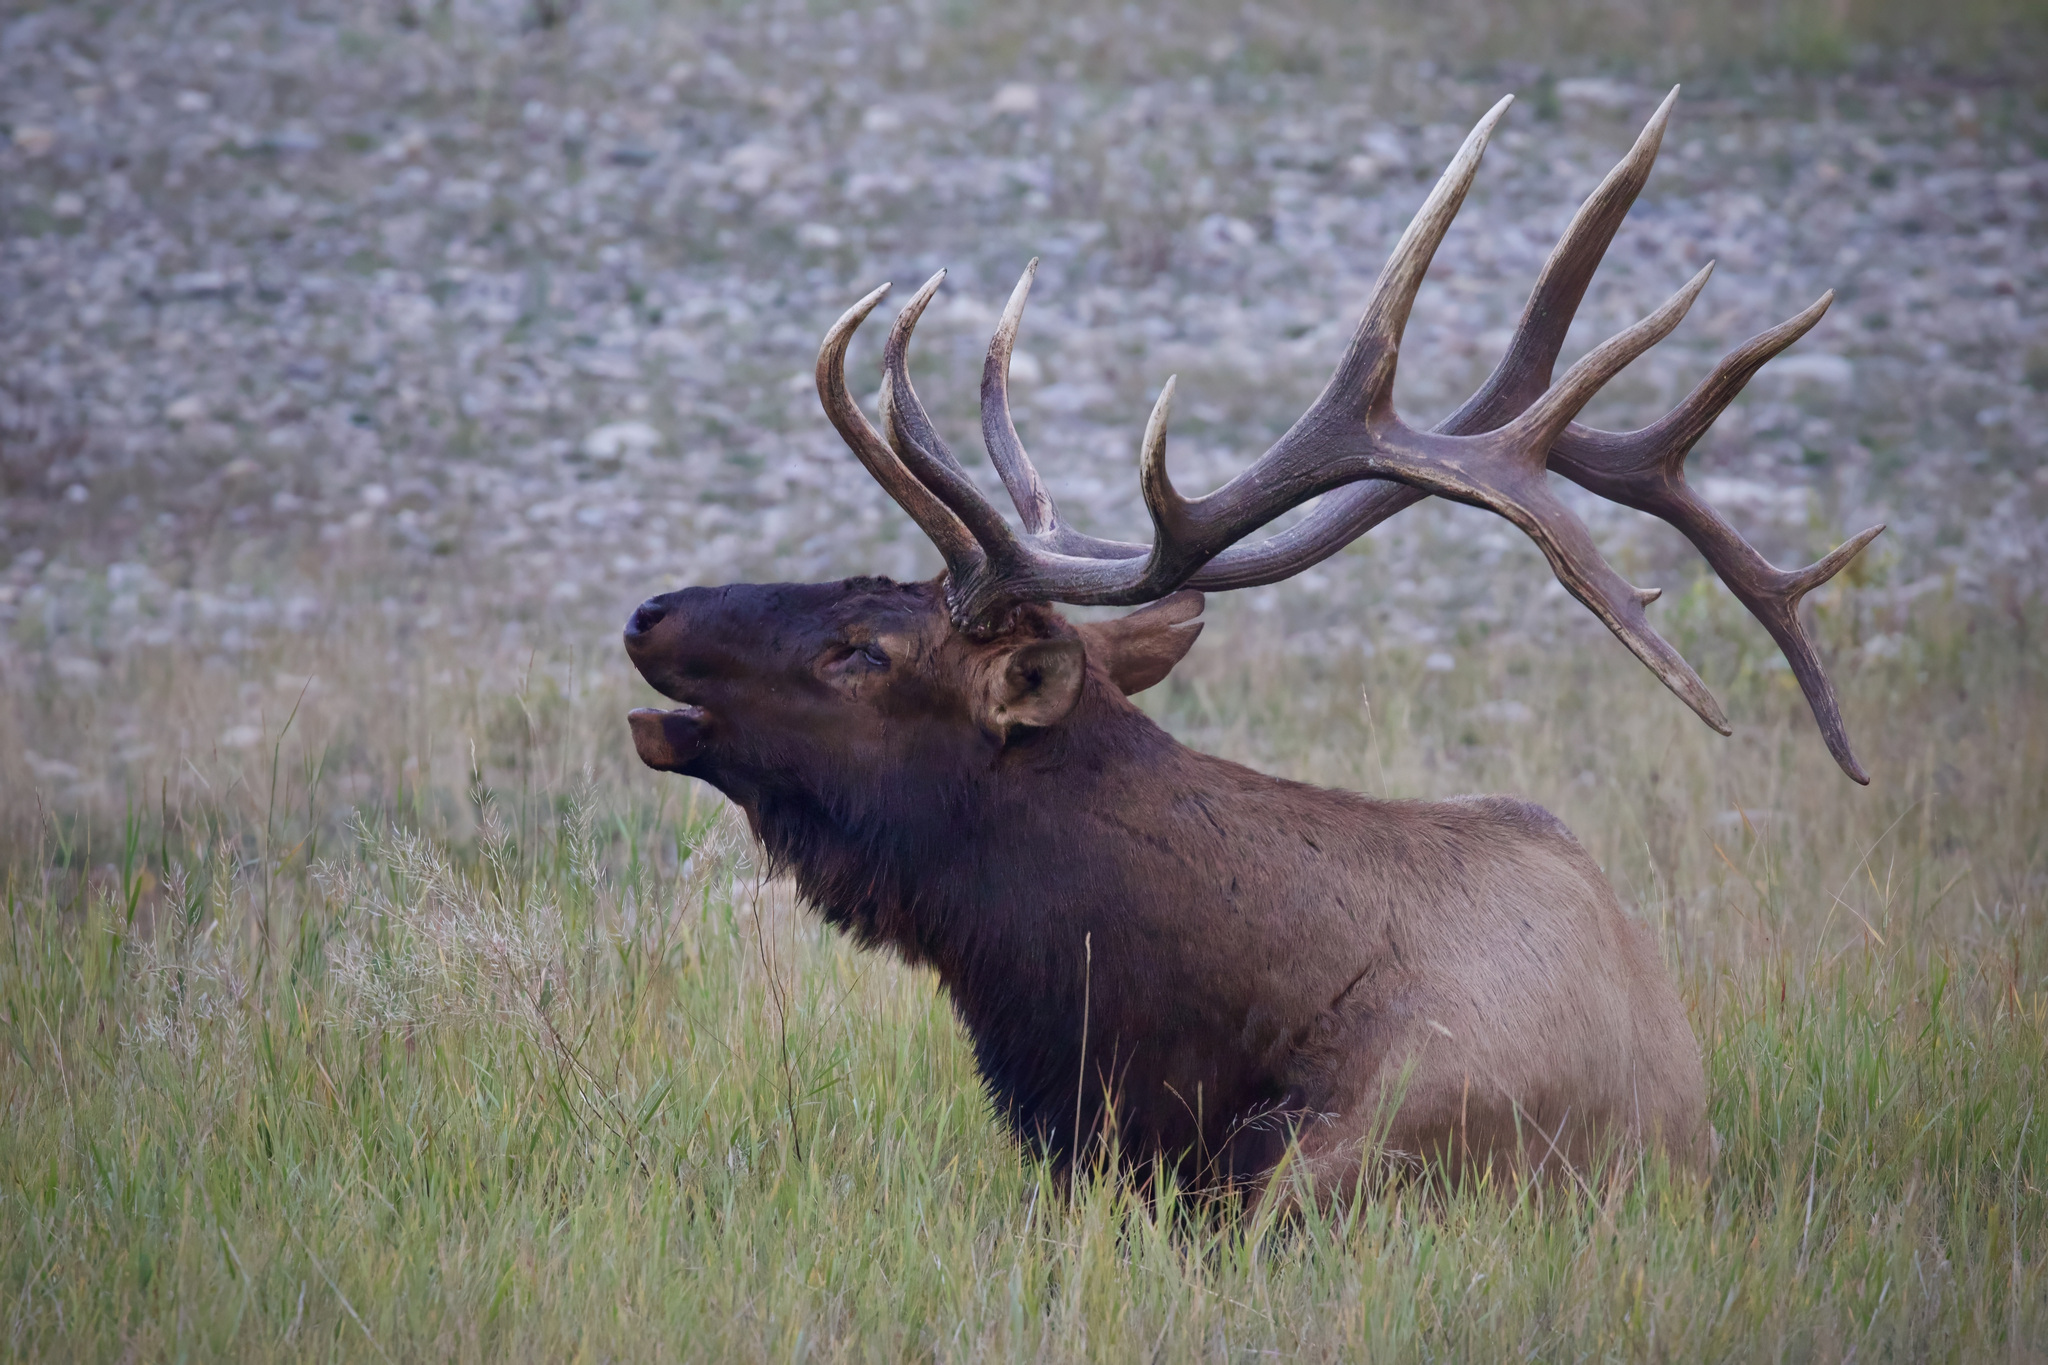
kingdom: Animalia
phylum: Chordata
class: Mammalia
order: Artiodactyla
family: Cervidae
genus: Cervus
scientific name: Cervus elaphus
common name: Red deer
